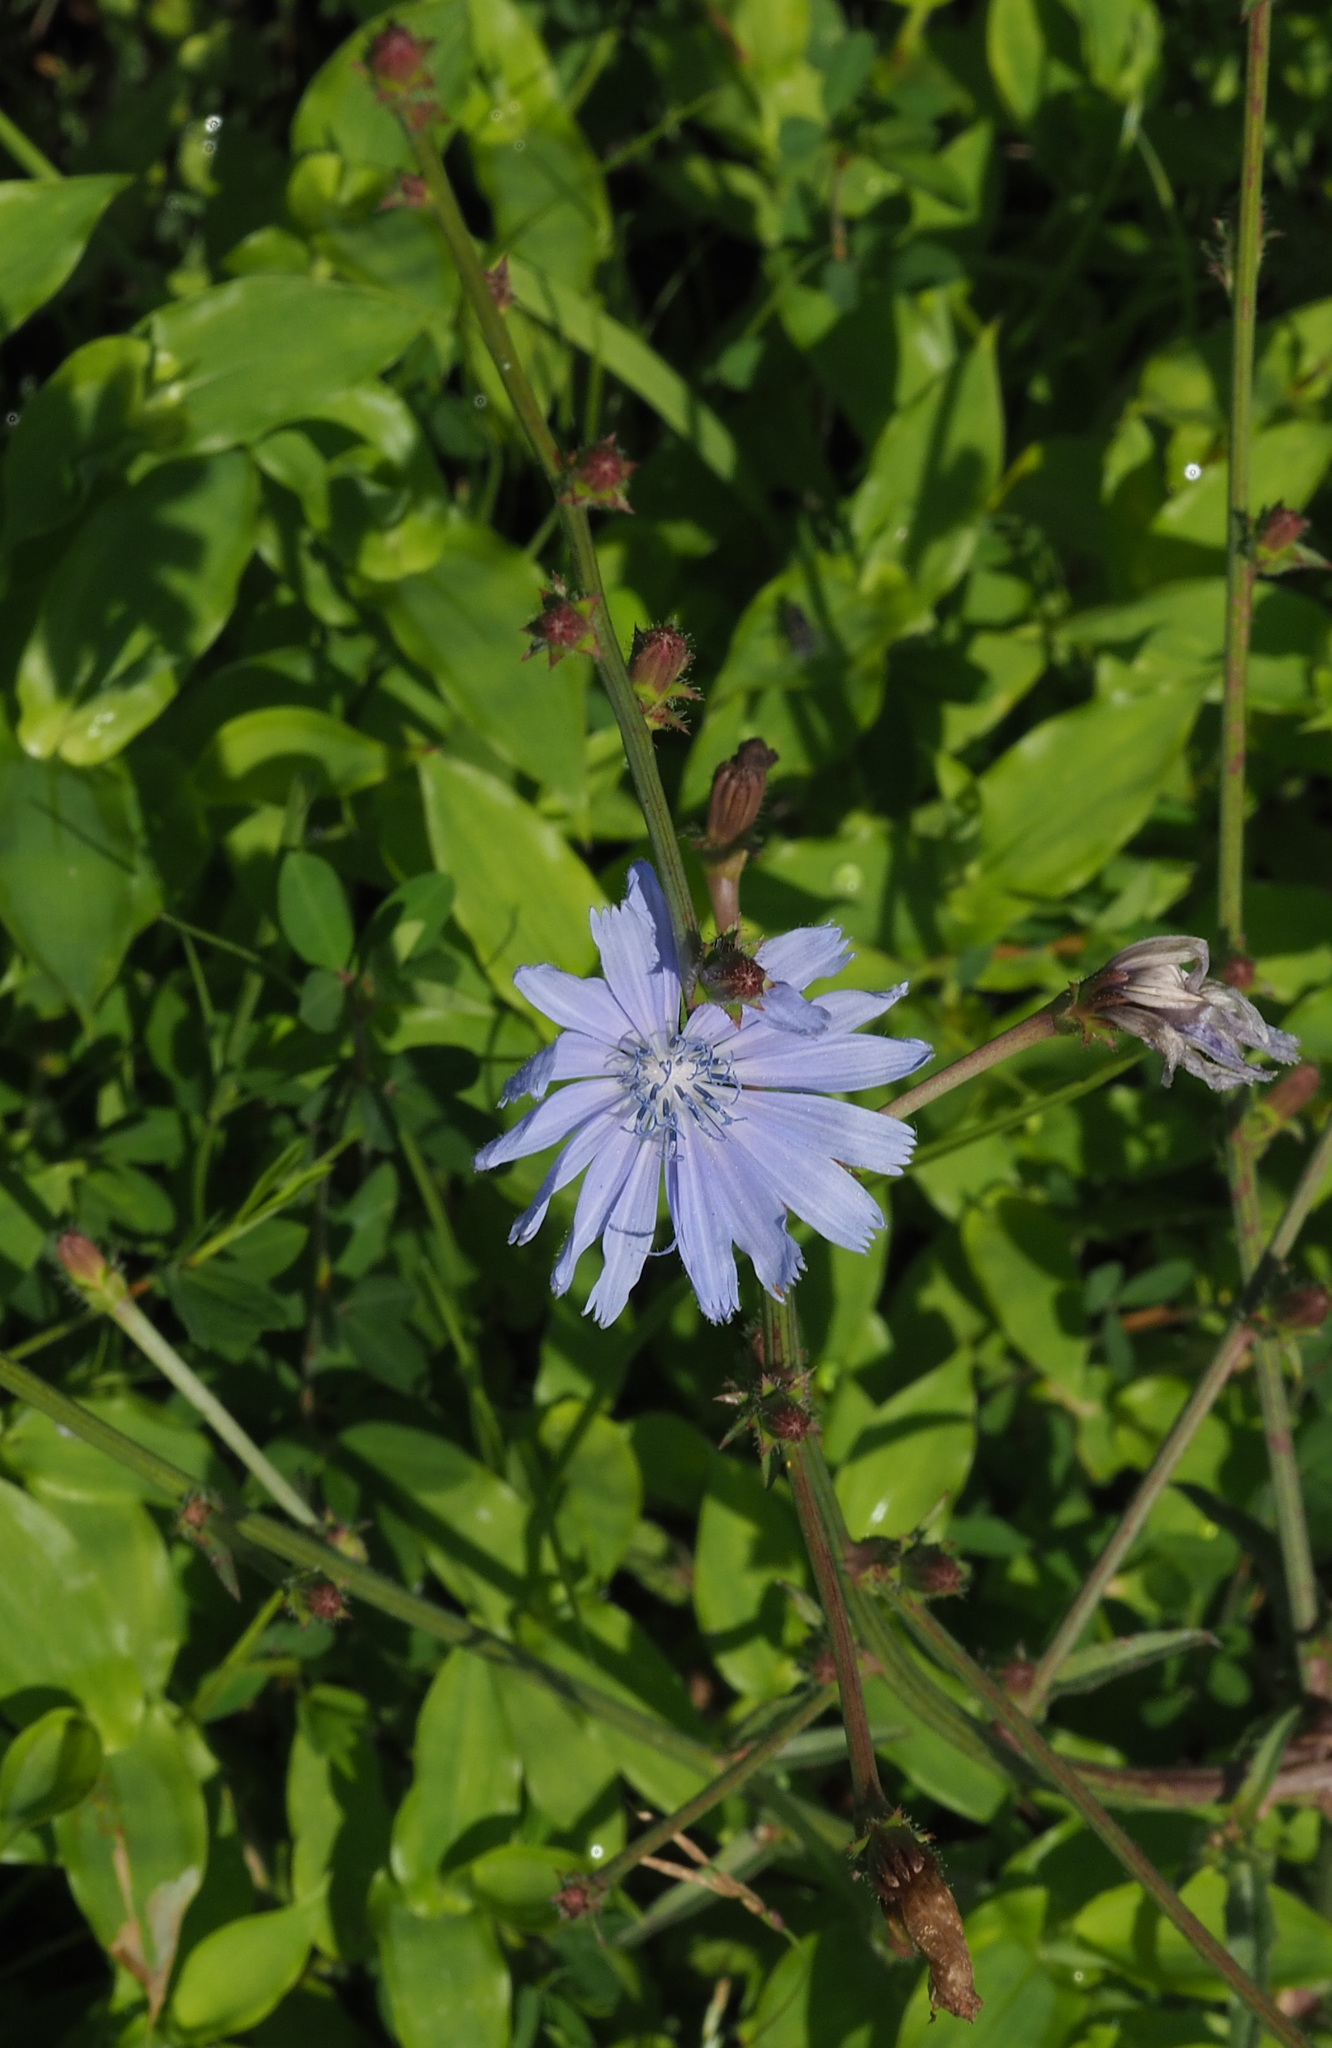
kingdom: Plantae
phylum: Tracheophyta
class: Magnoliopsida
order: Asterales
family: Asteraceae
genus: Cichorium
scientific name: Cichorium intybus
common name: Chicory
